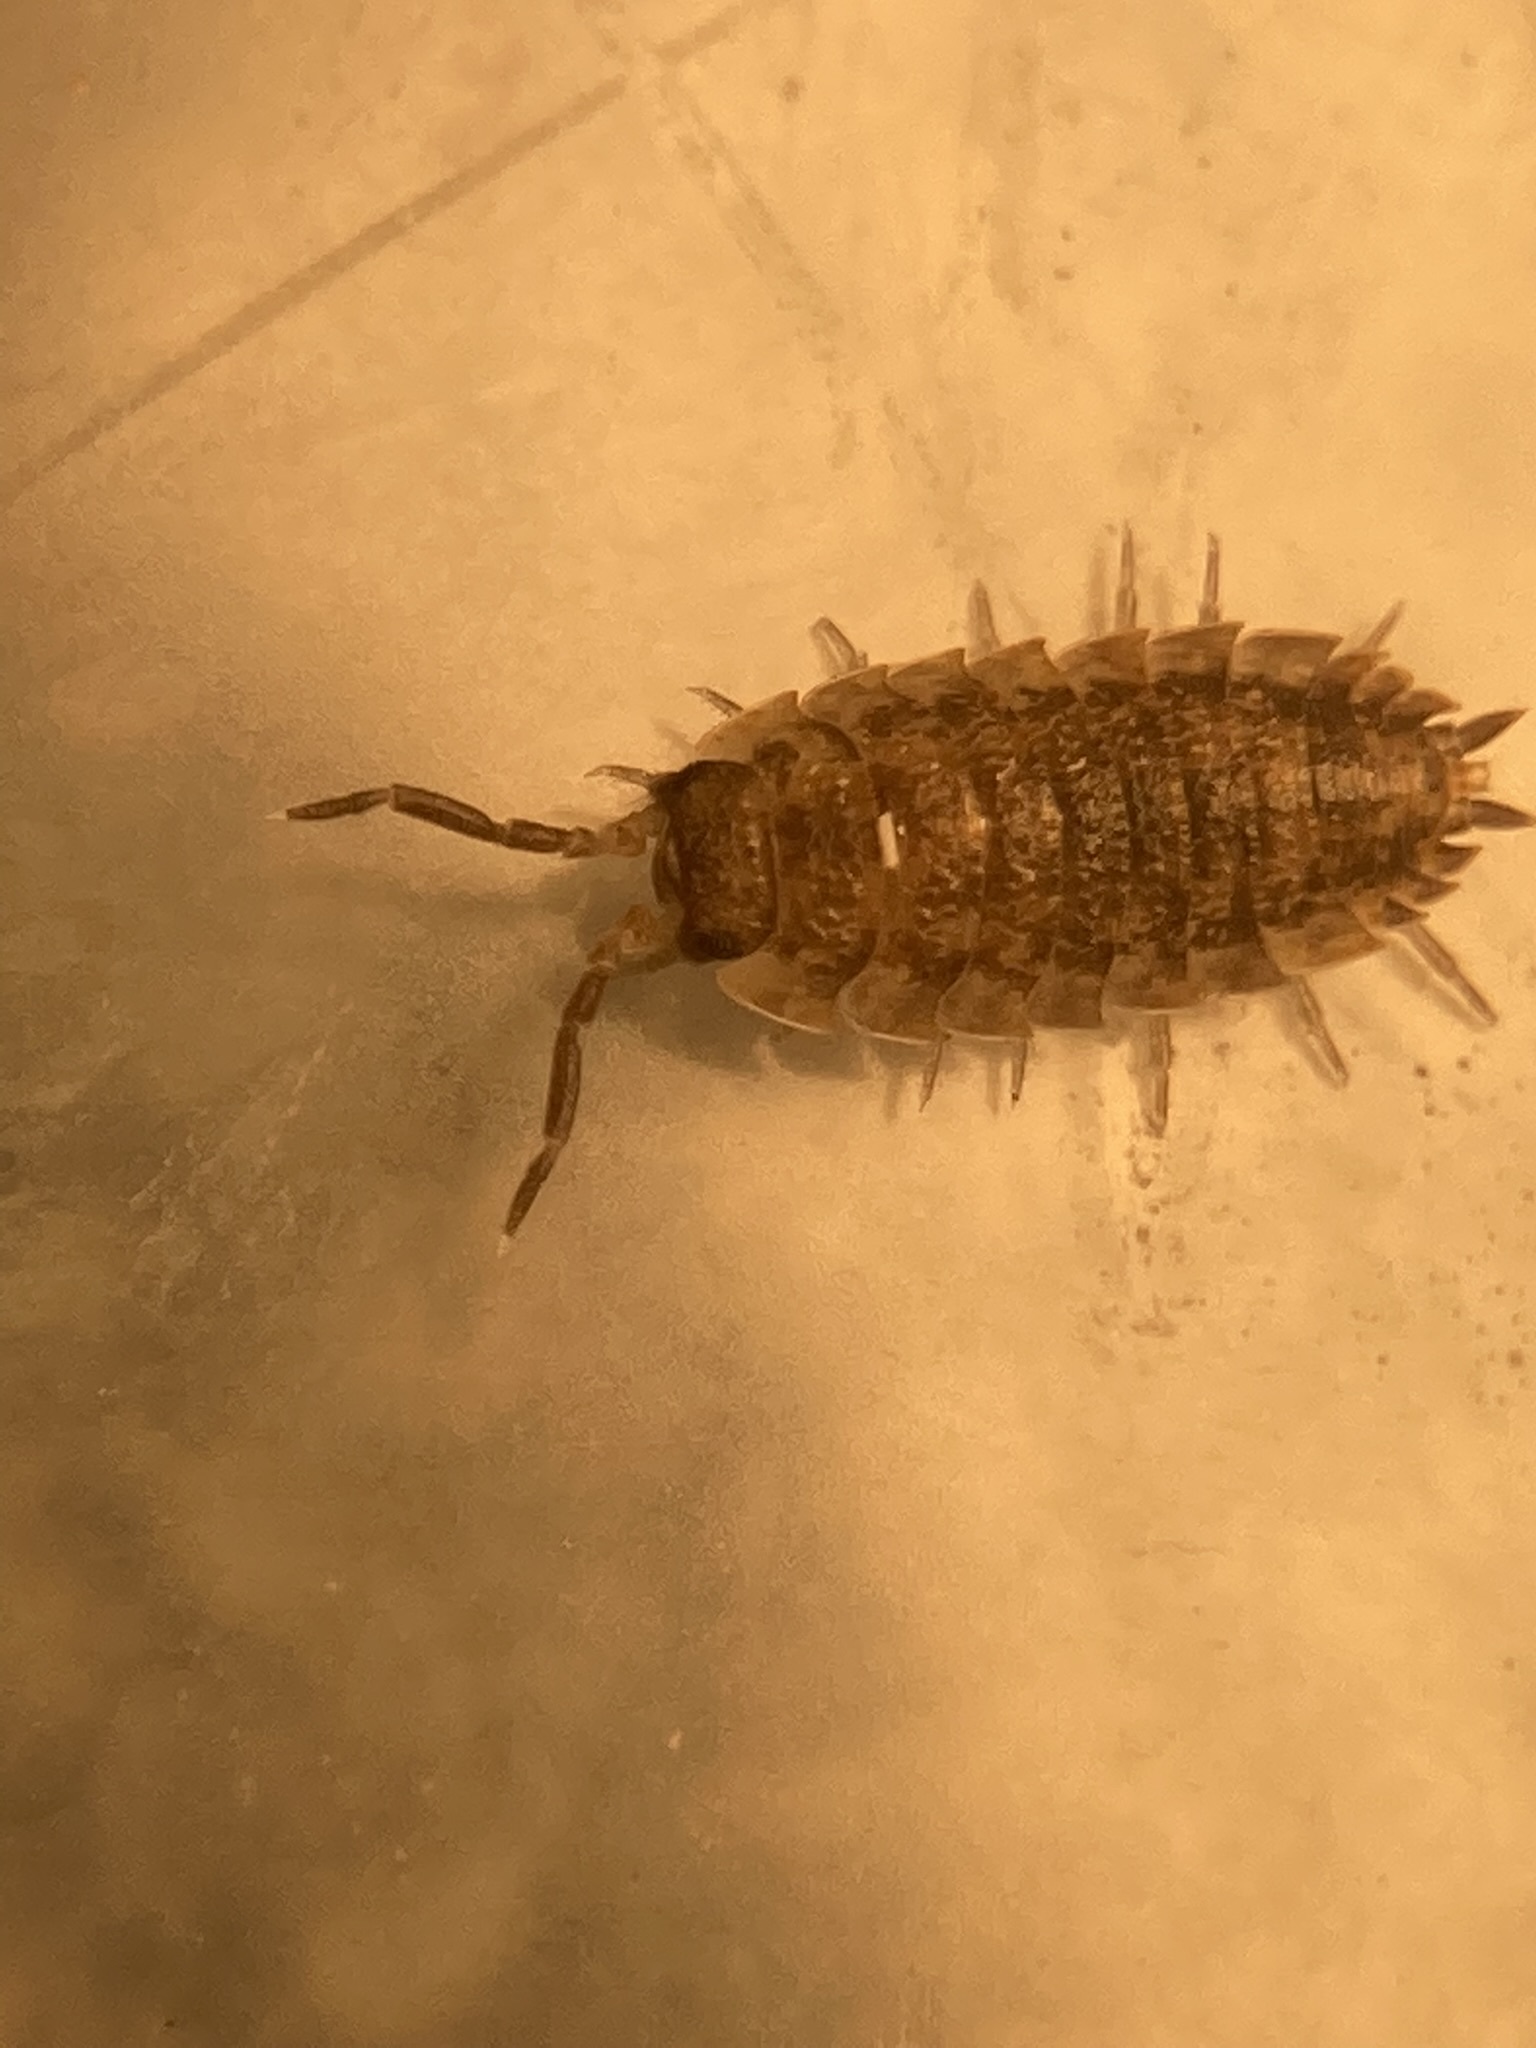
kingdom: Animalia
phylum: Arthropoda
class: Malacostraca
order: Isopoda
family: Porcellionidae
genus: Porcellio
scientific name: Porcellio scaber
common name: Common rough woodlouse
